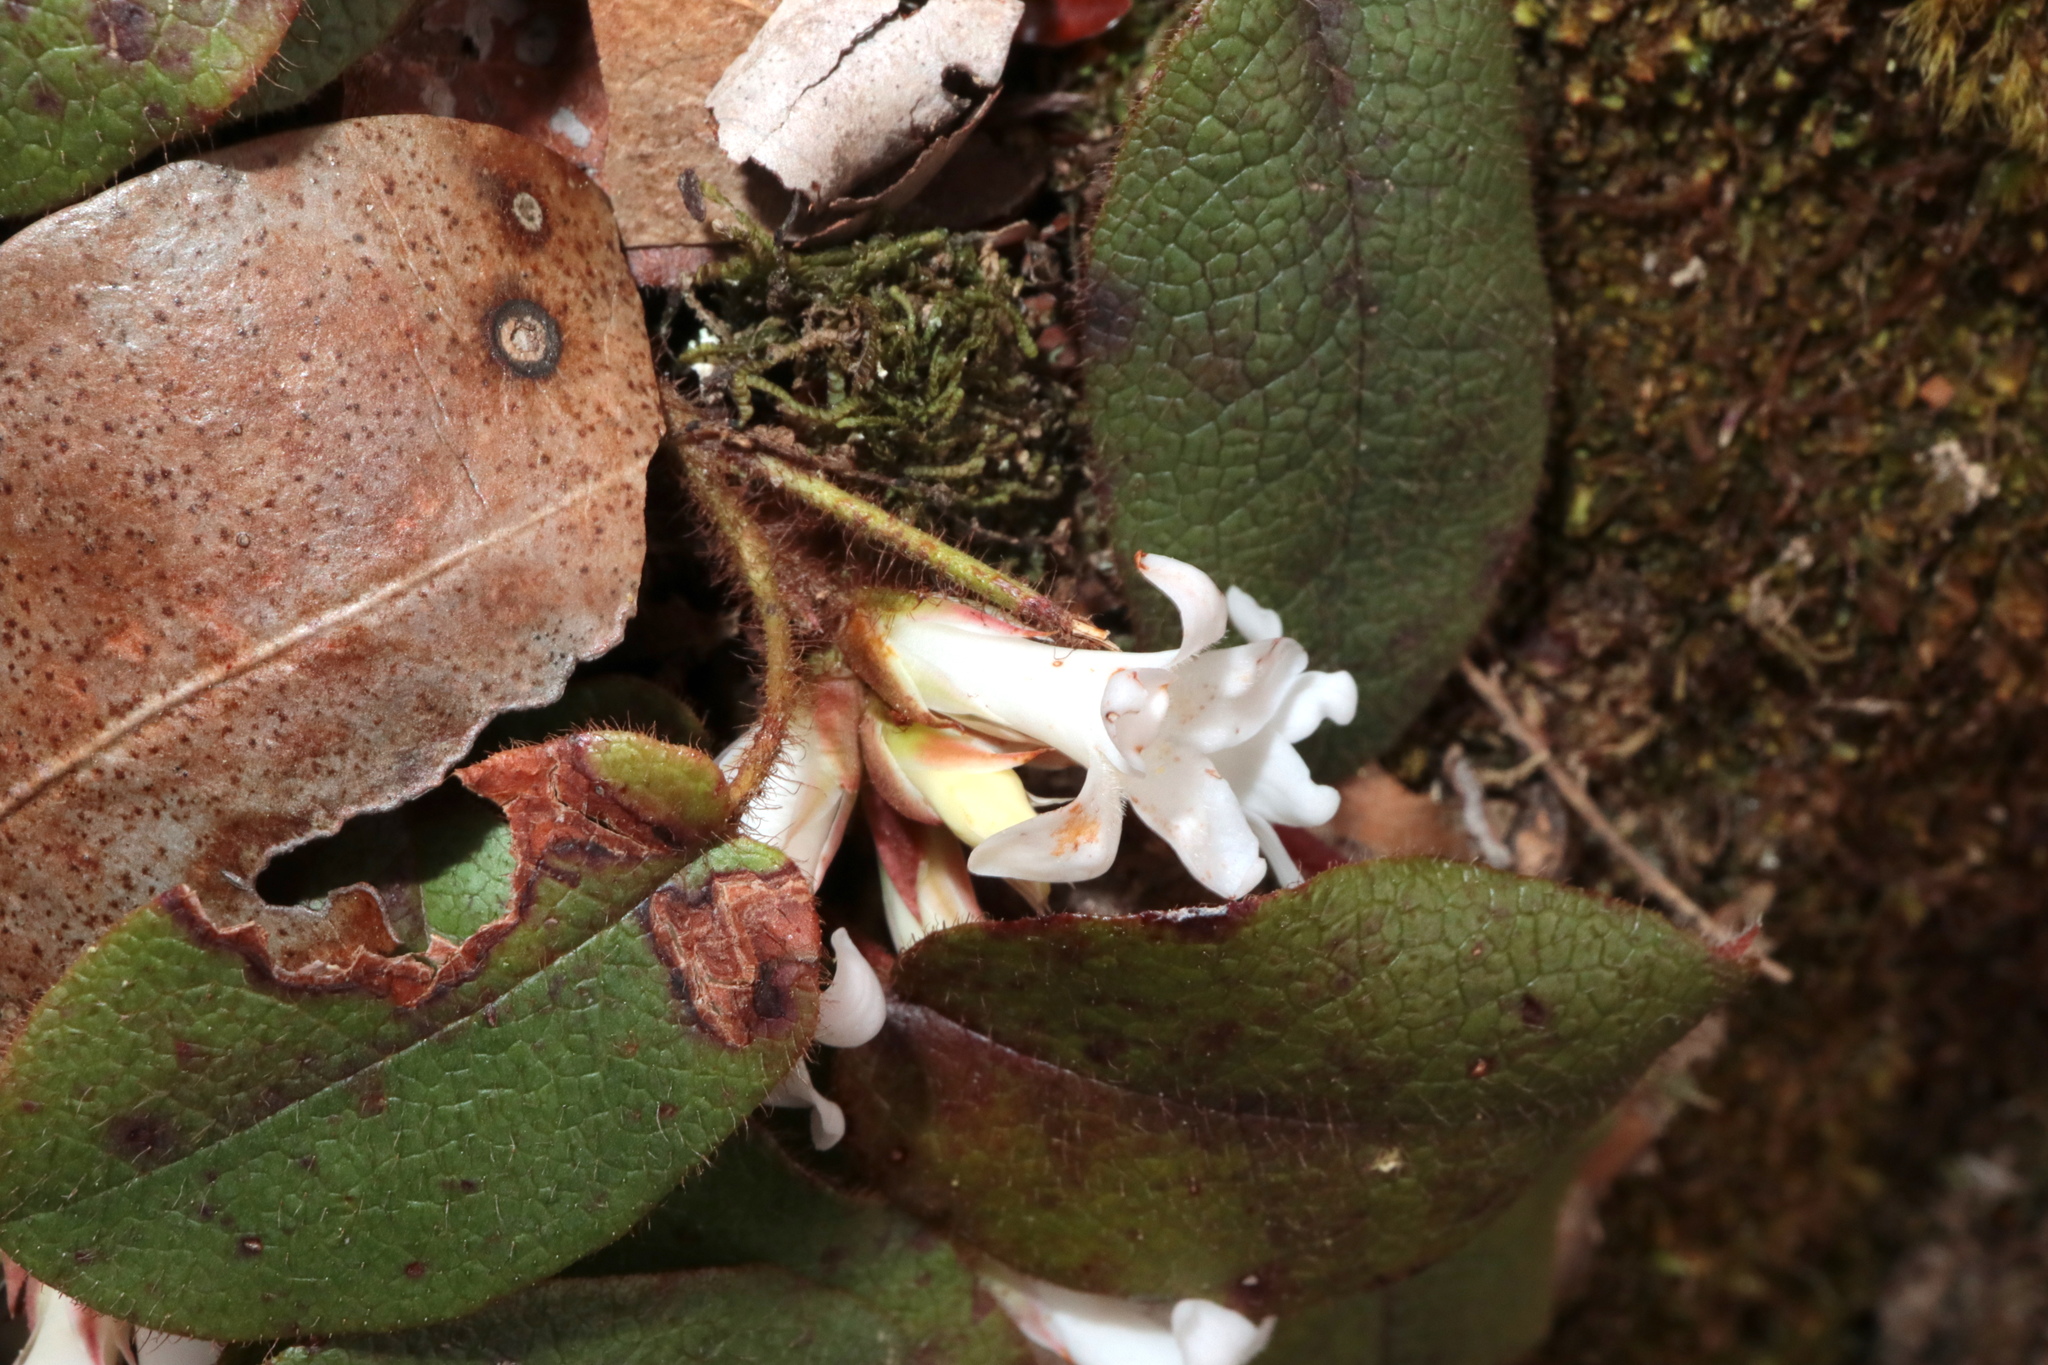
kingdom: Plantae
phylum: Tracheophyta
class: Magnoliopsida
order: Ericales
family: Ericaceae
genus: Epigaea
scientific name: Epigaea repens
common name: Gravelroot
